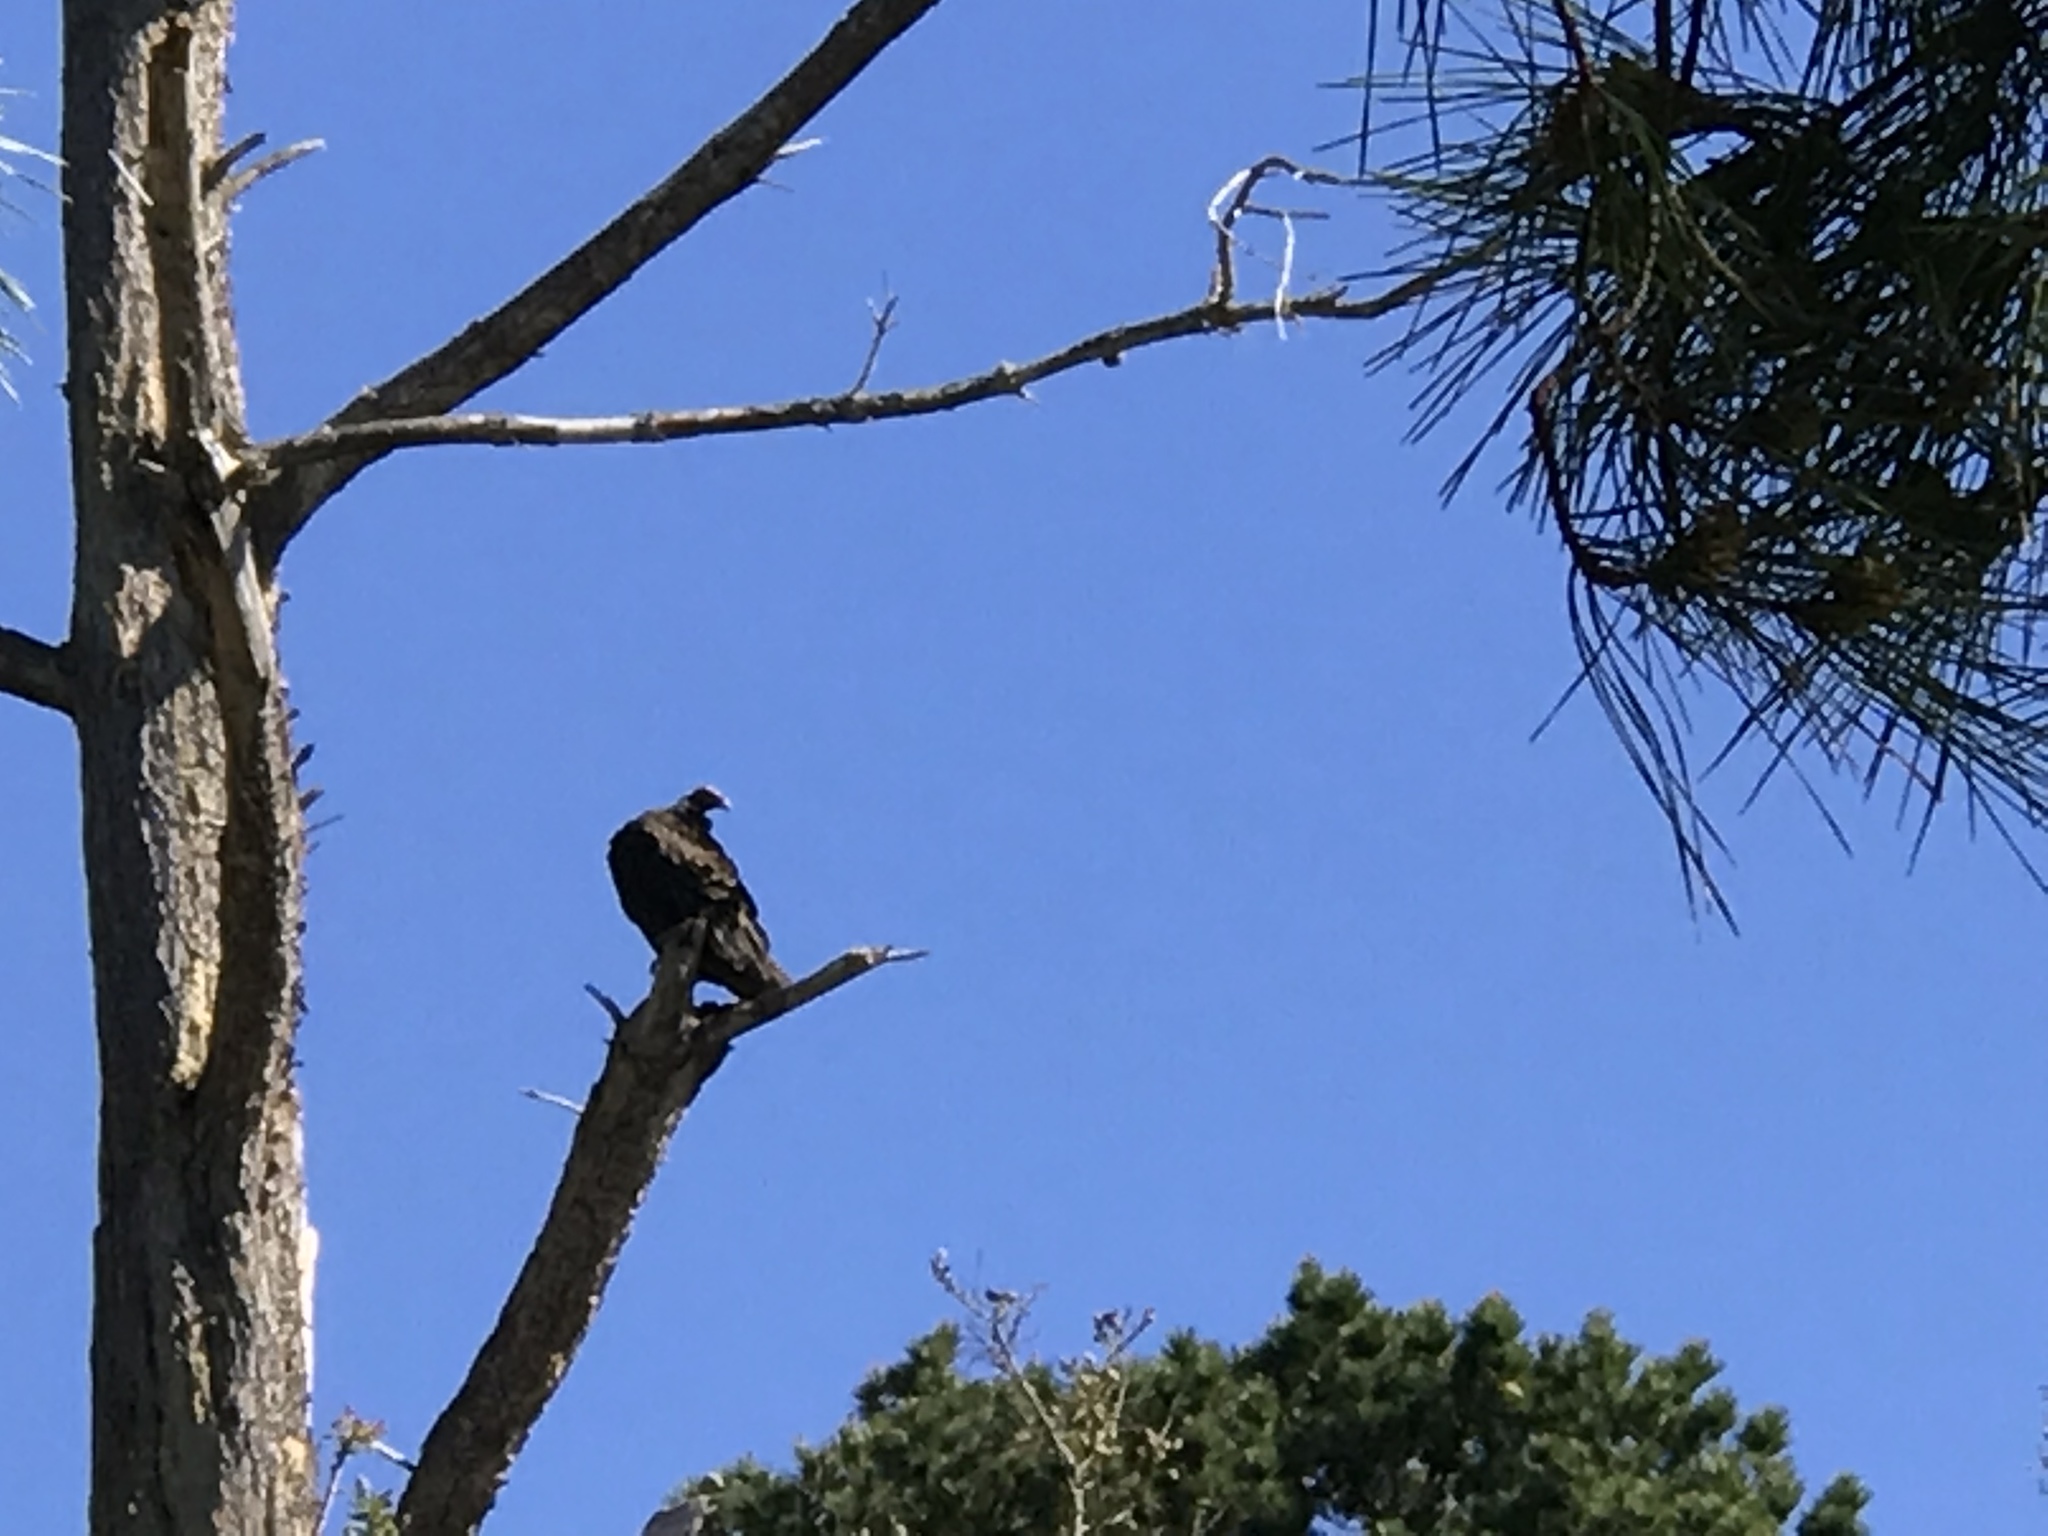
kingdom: Animalia
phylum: Chordata
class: Aves
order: Accipitriformes
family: Cathartidae
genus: Cathartes
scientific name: Cathartes aura
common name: Turkey vulture
